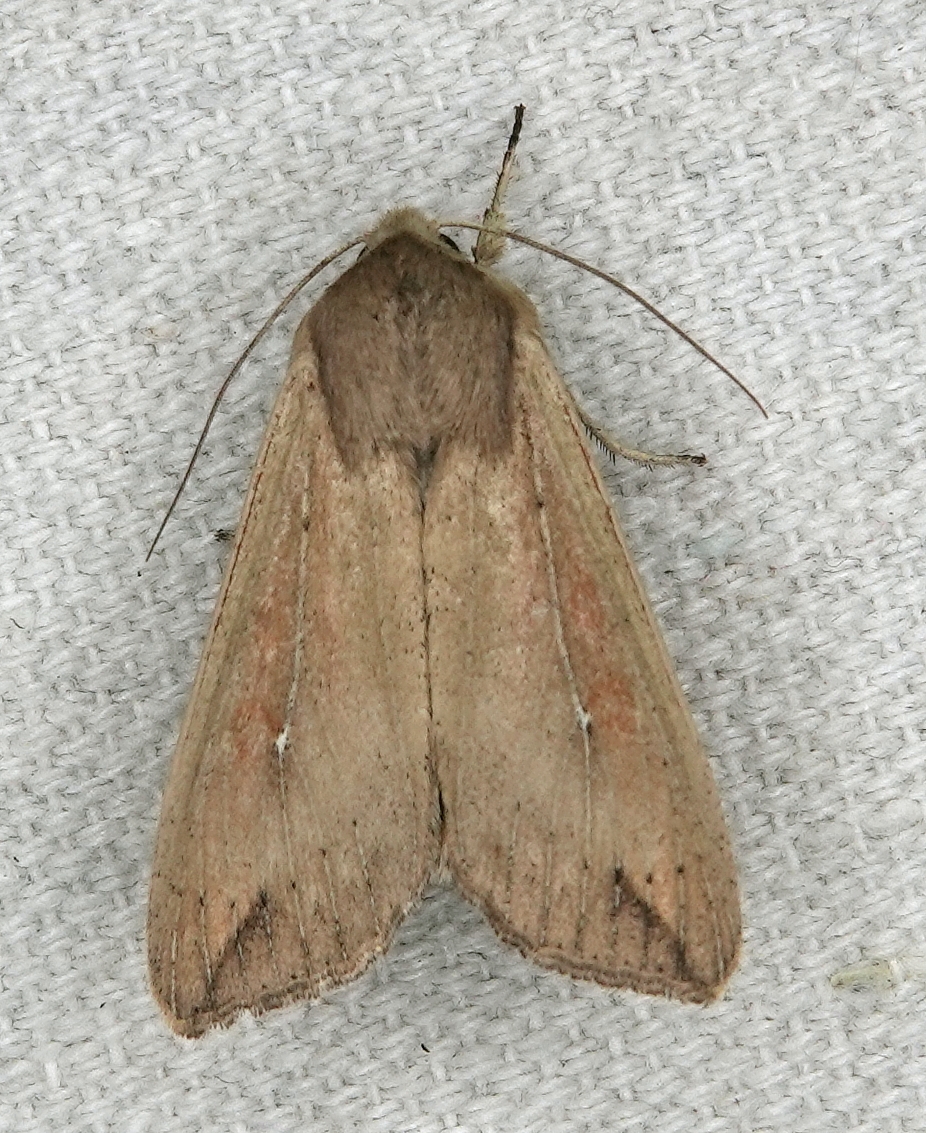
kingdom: Animalia
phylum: Arthropoda
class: Insecta
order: Lepidoptera
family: Noctuidae
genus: Mythimna
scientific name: Mythimna unipuncta
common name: White-speck
